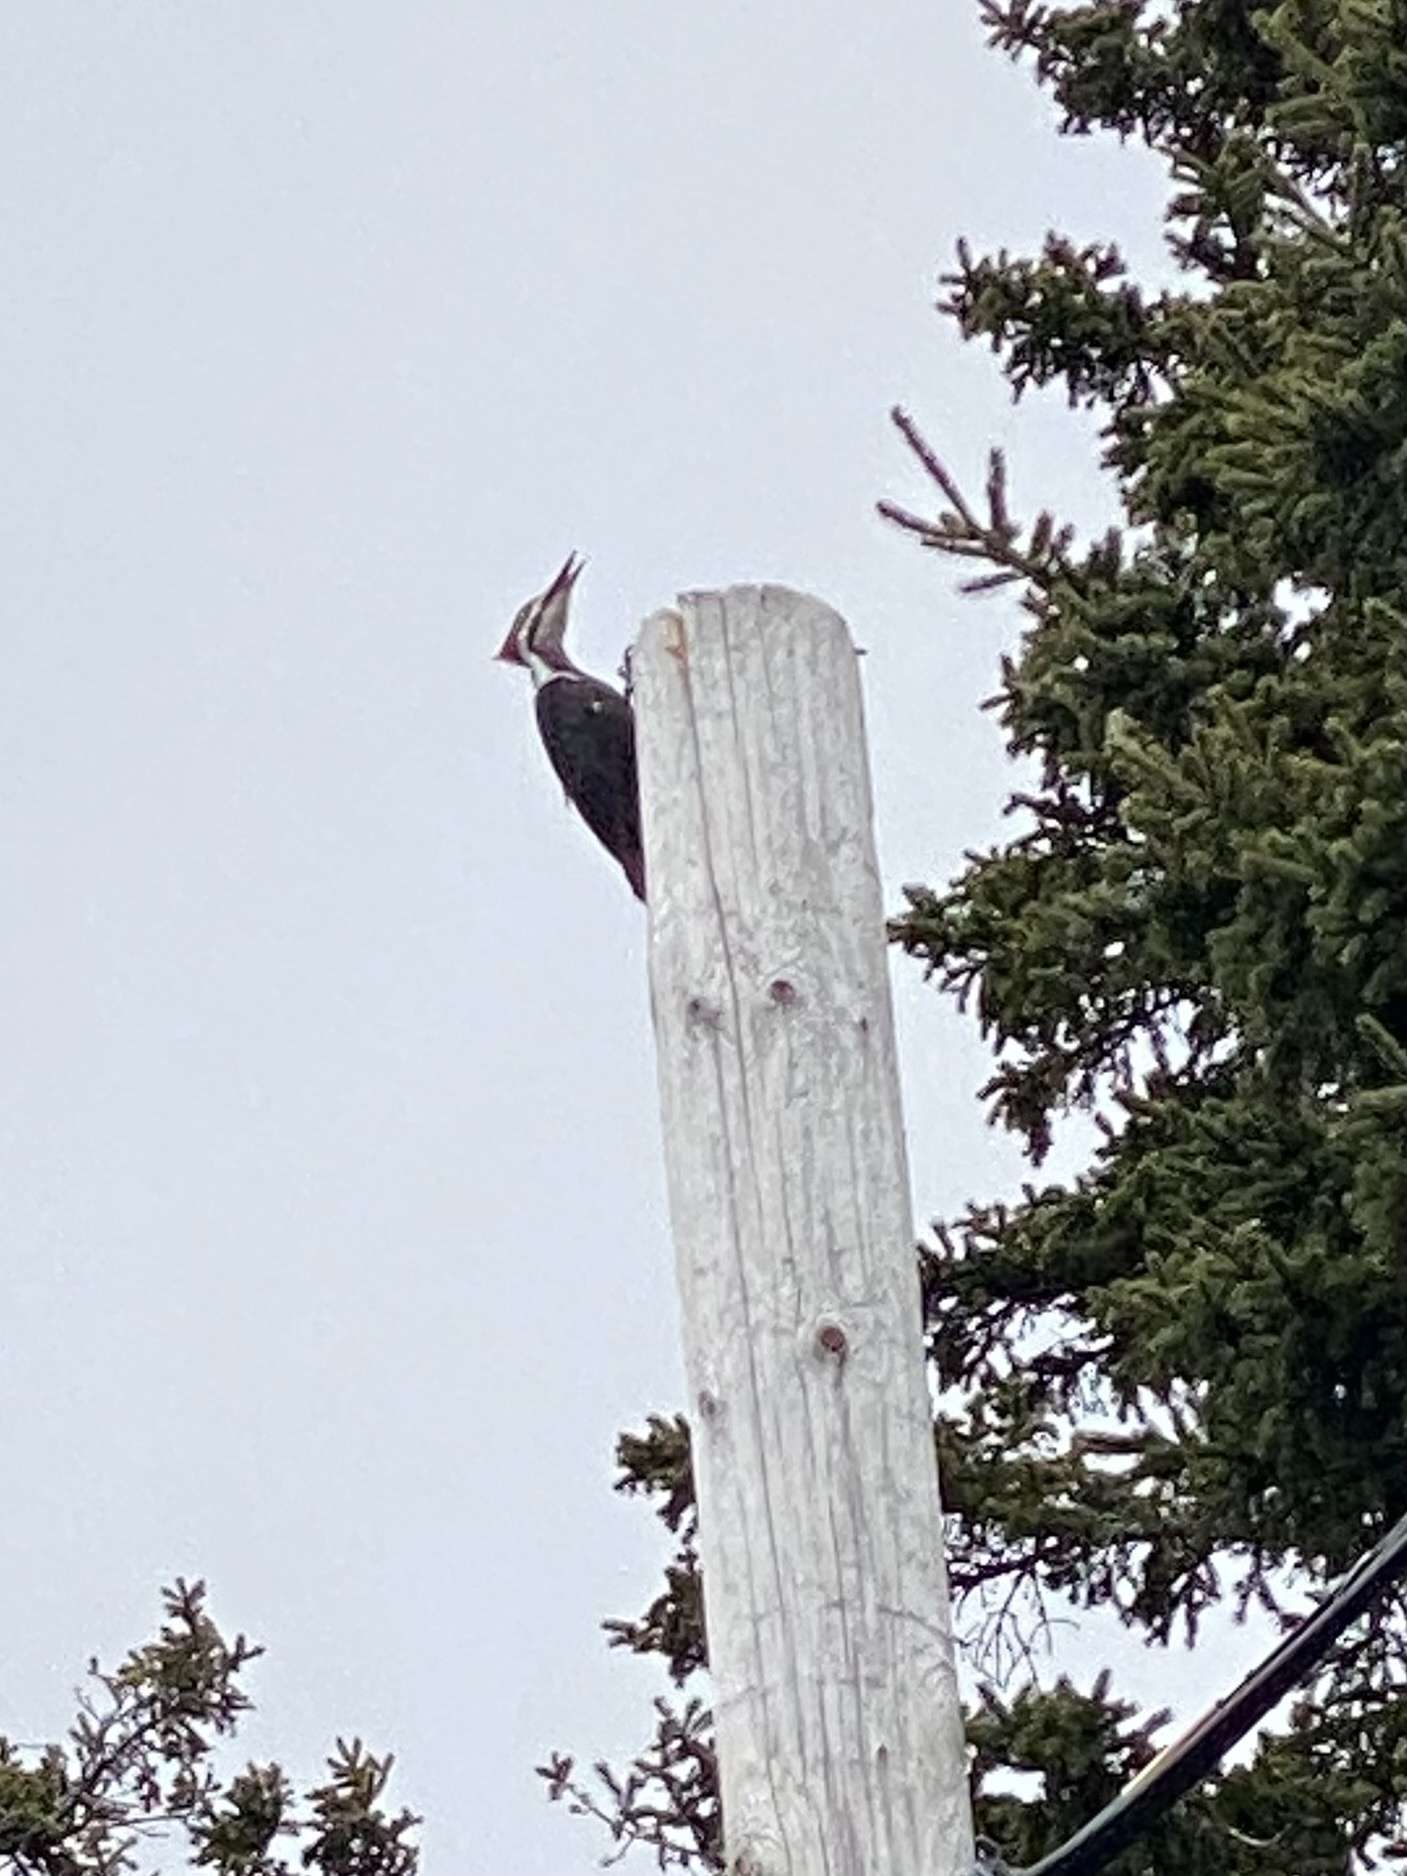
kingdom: Animalia
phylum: Chordata
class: Aves
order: Piciformes
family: Picidae
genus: Dryocopus
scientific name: Dryocopus pileatus
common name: Pileated woodpecker
